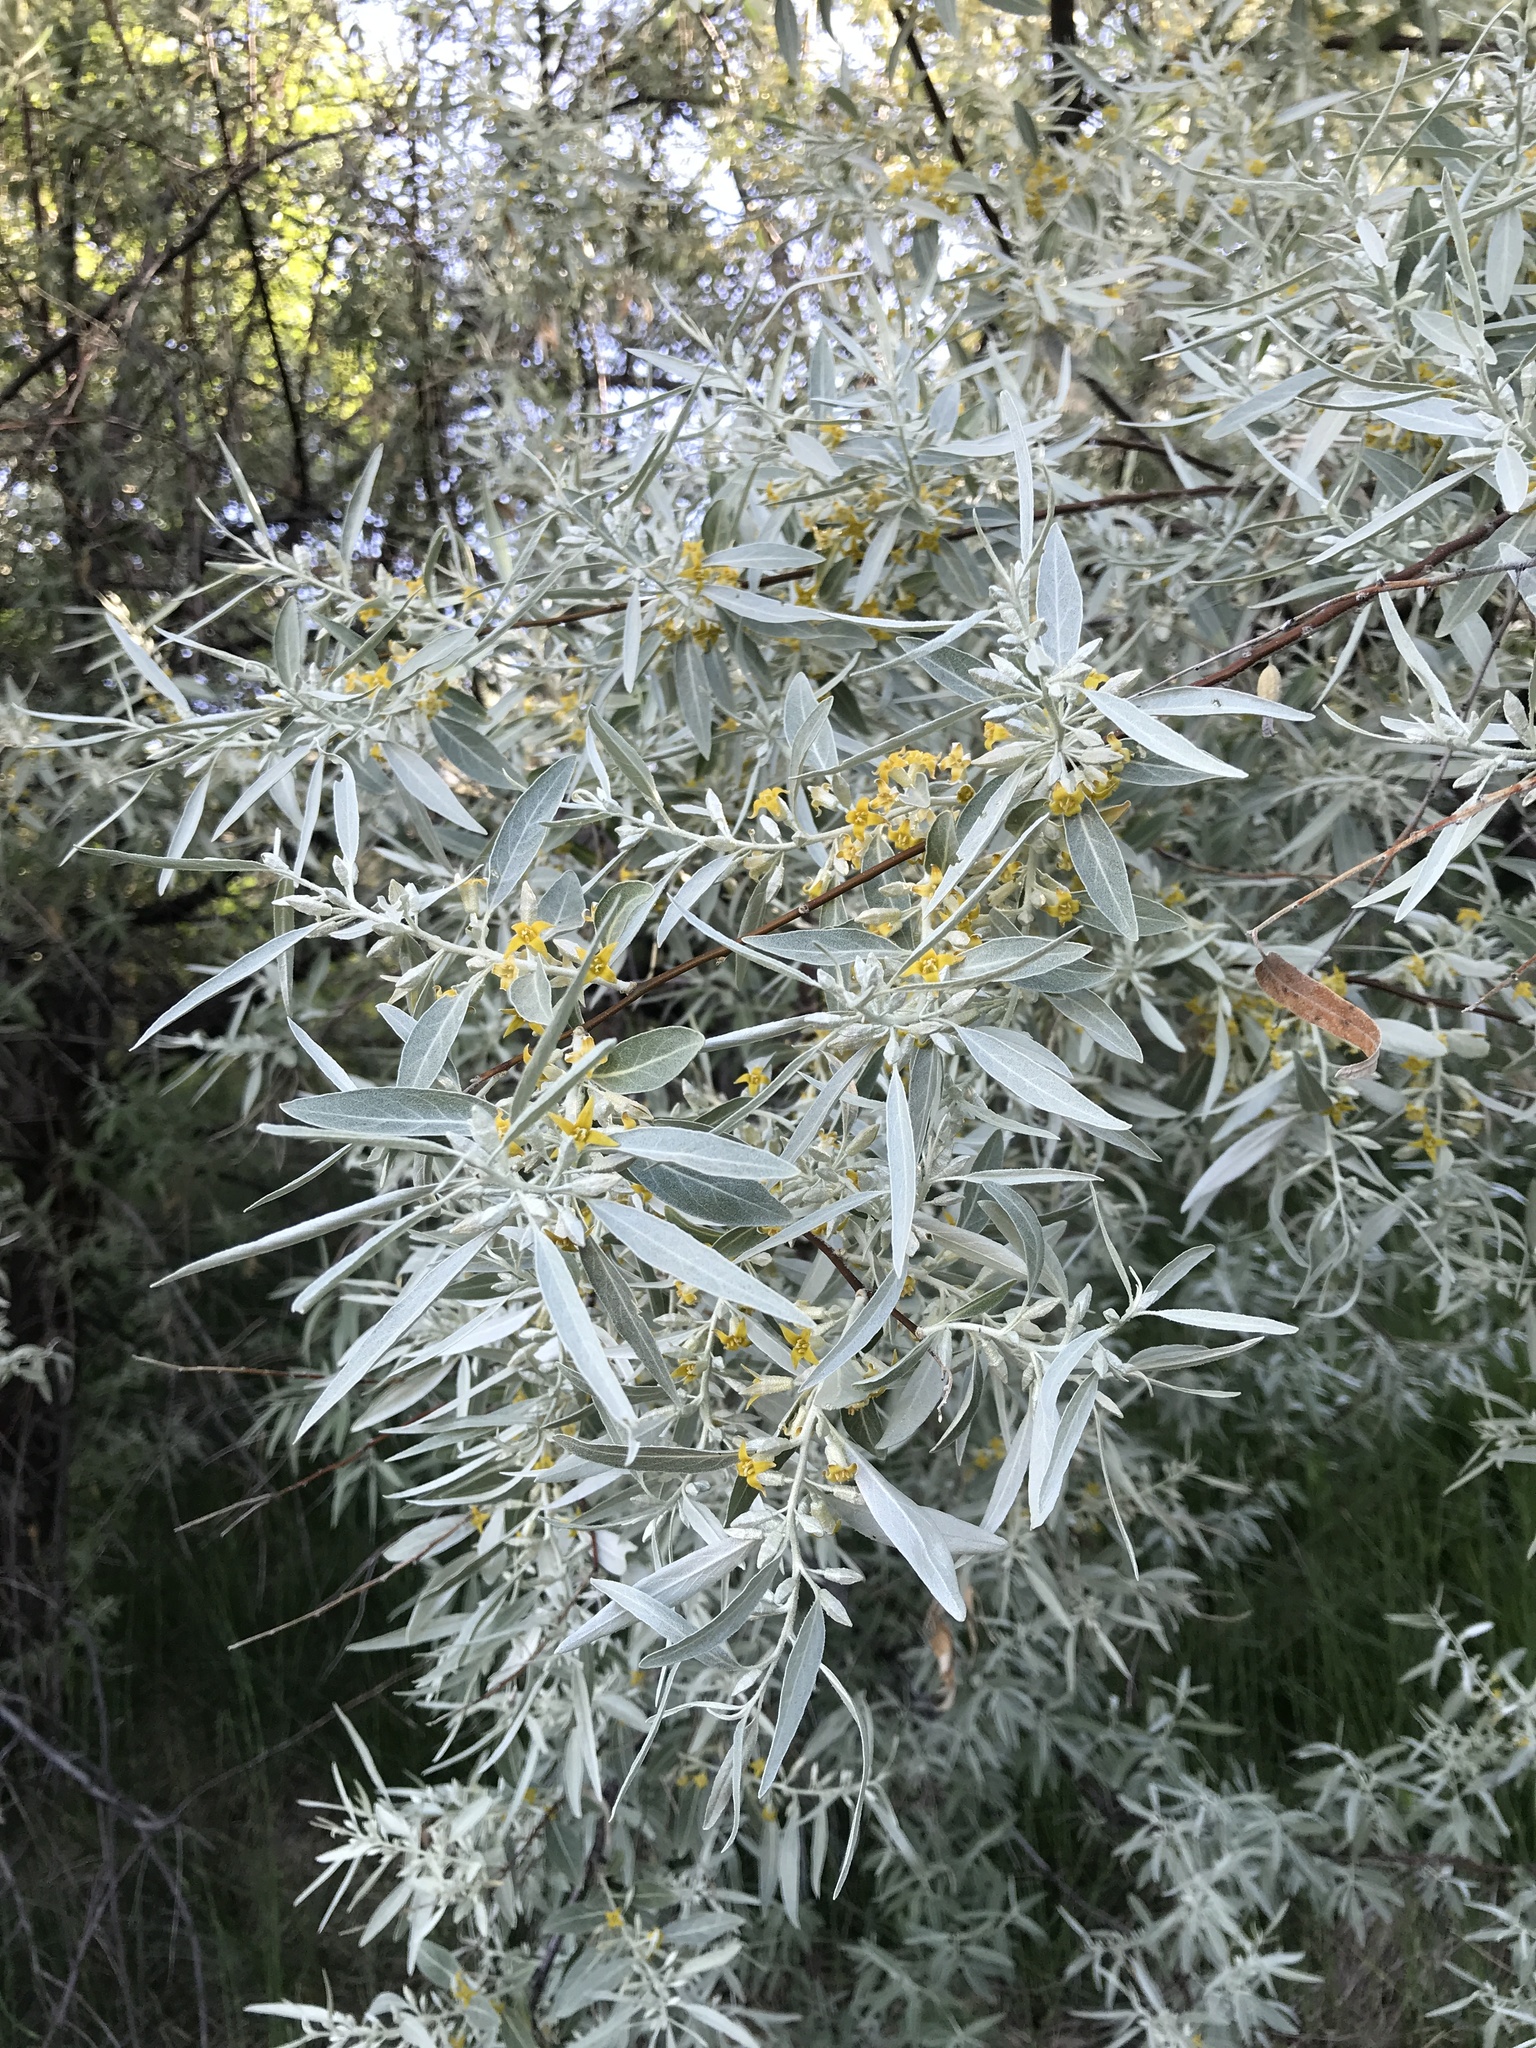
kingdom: Plantae
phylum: Tracheophyta
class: Magnoliopsida
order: Rosales
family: Elaeagnaceae
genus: Elaeagnus
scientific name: Elaeagnus angustifolia
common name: Russian olive
